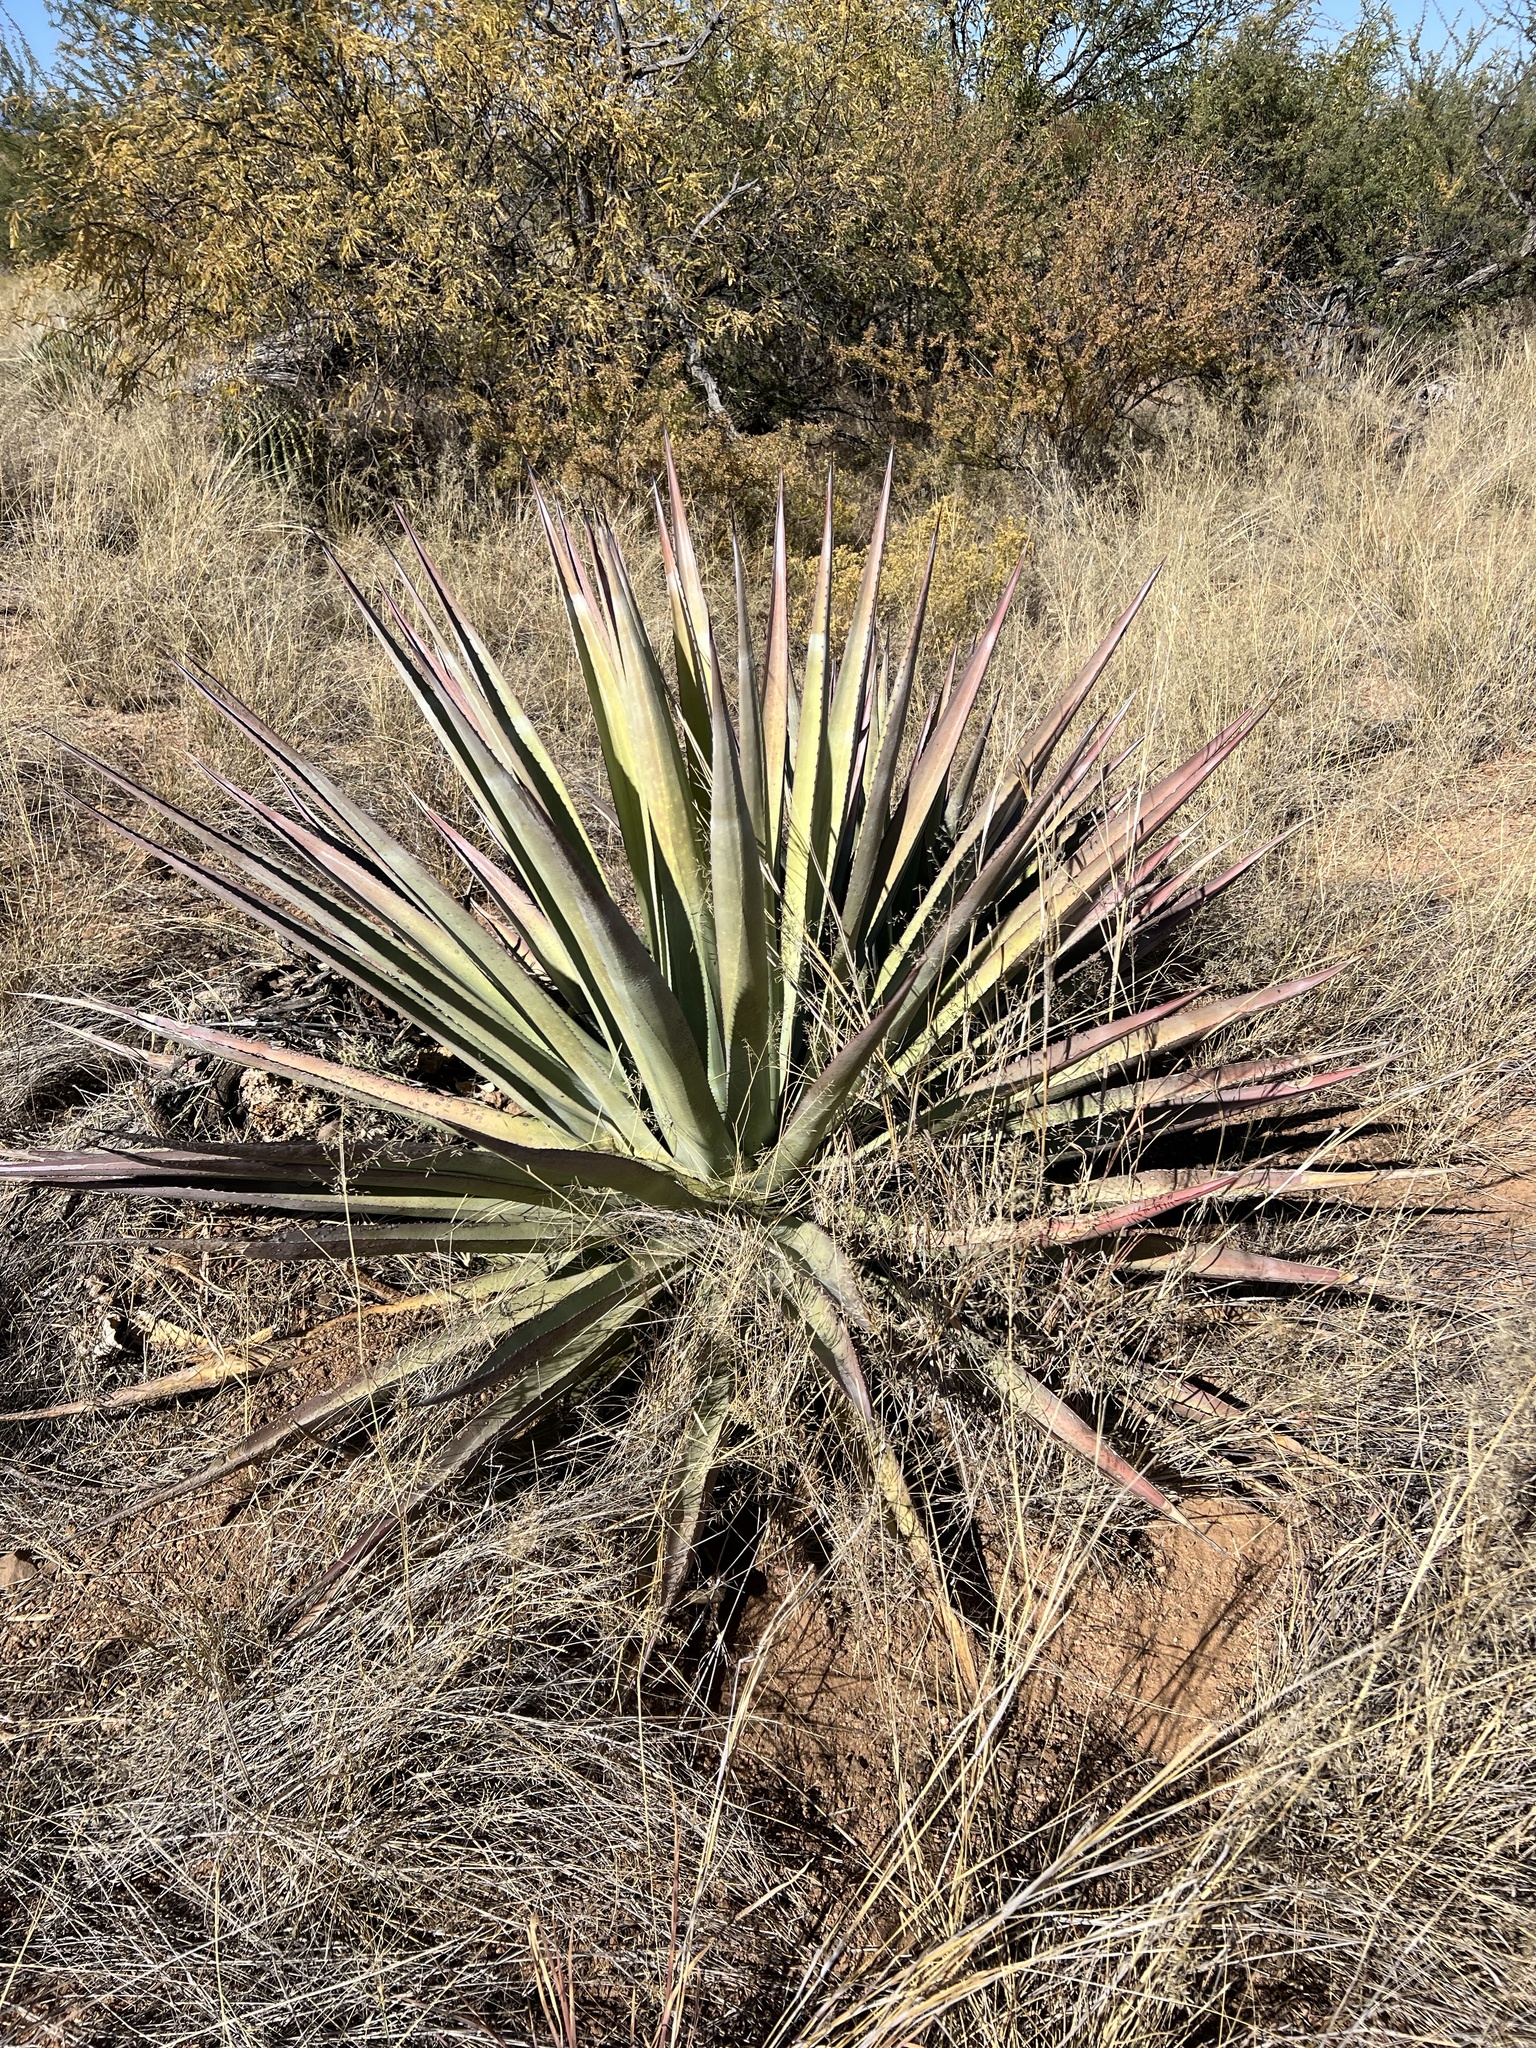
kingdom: Plantae
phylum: Tracheophyta
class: Liliopsida
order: Asparagales
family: Asparagaceae
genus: Agave
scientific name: Agave palmeri
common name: Palmer agave
